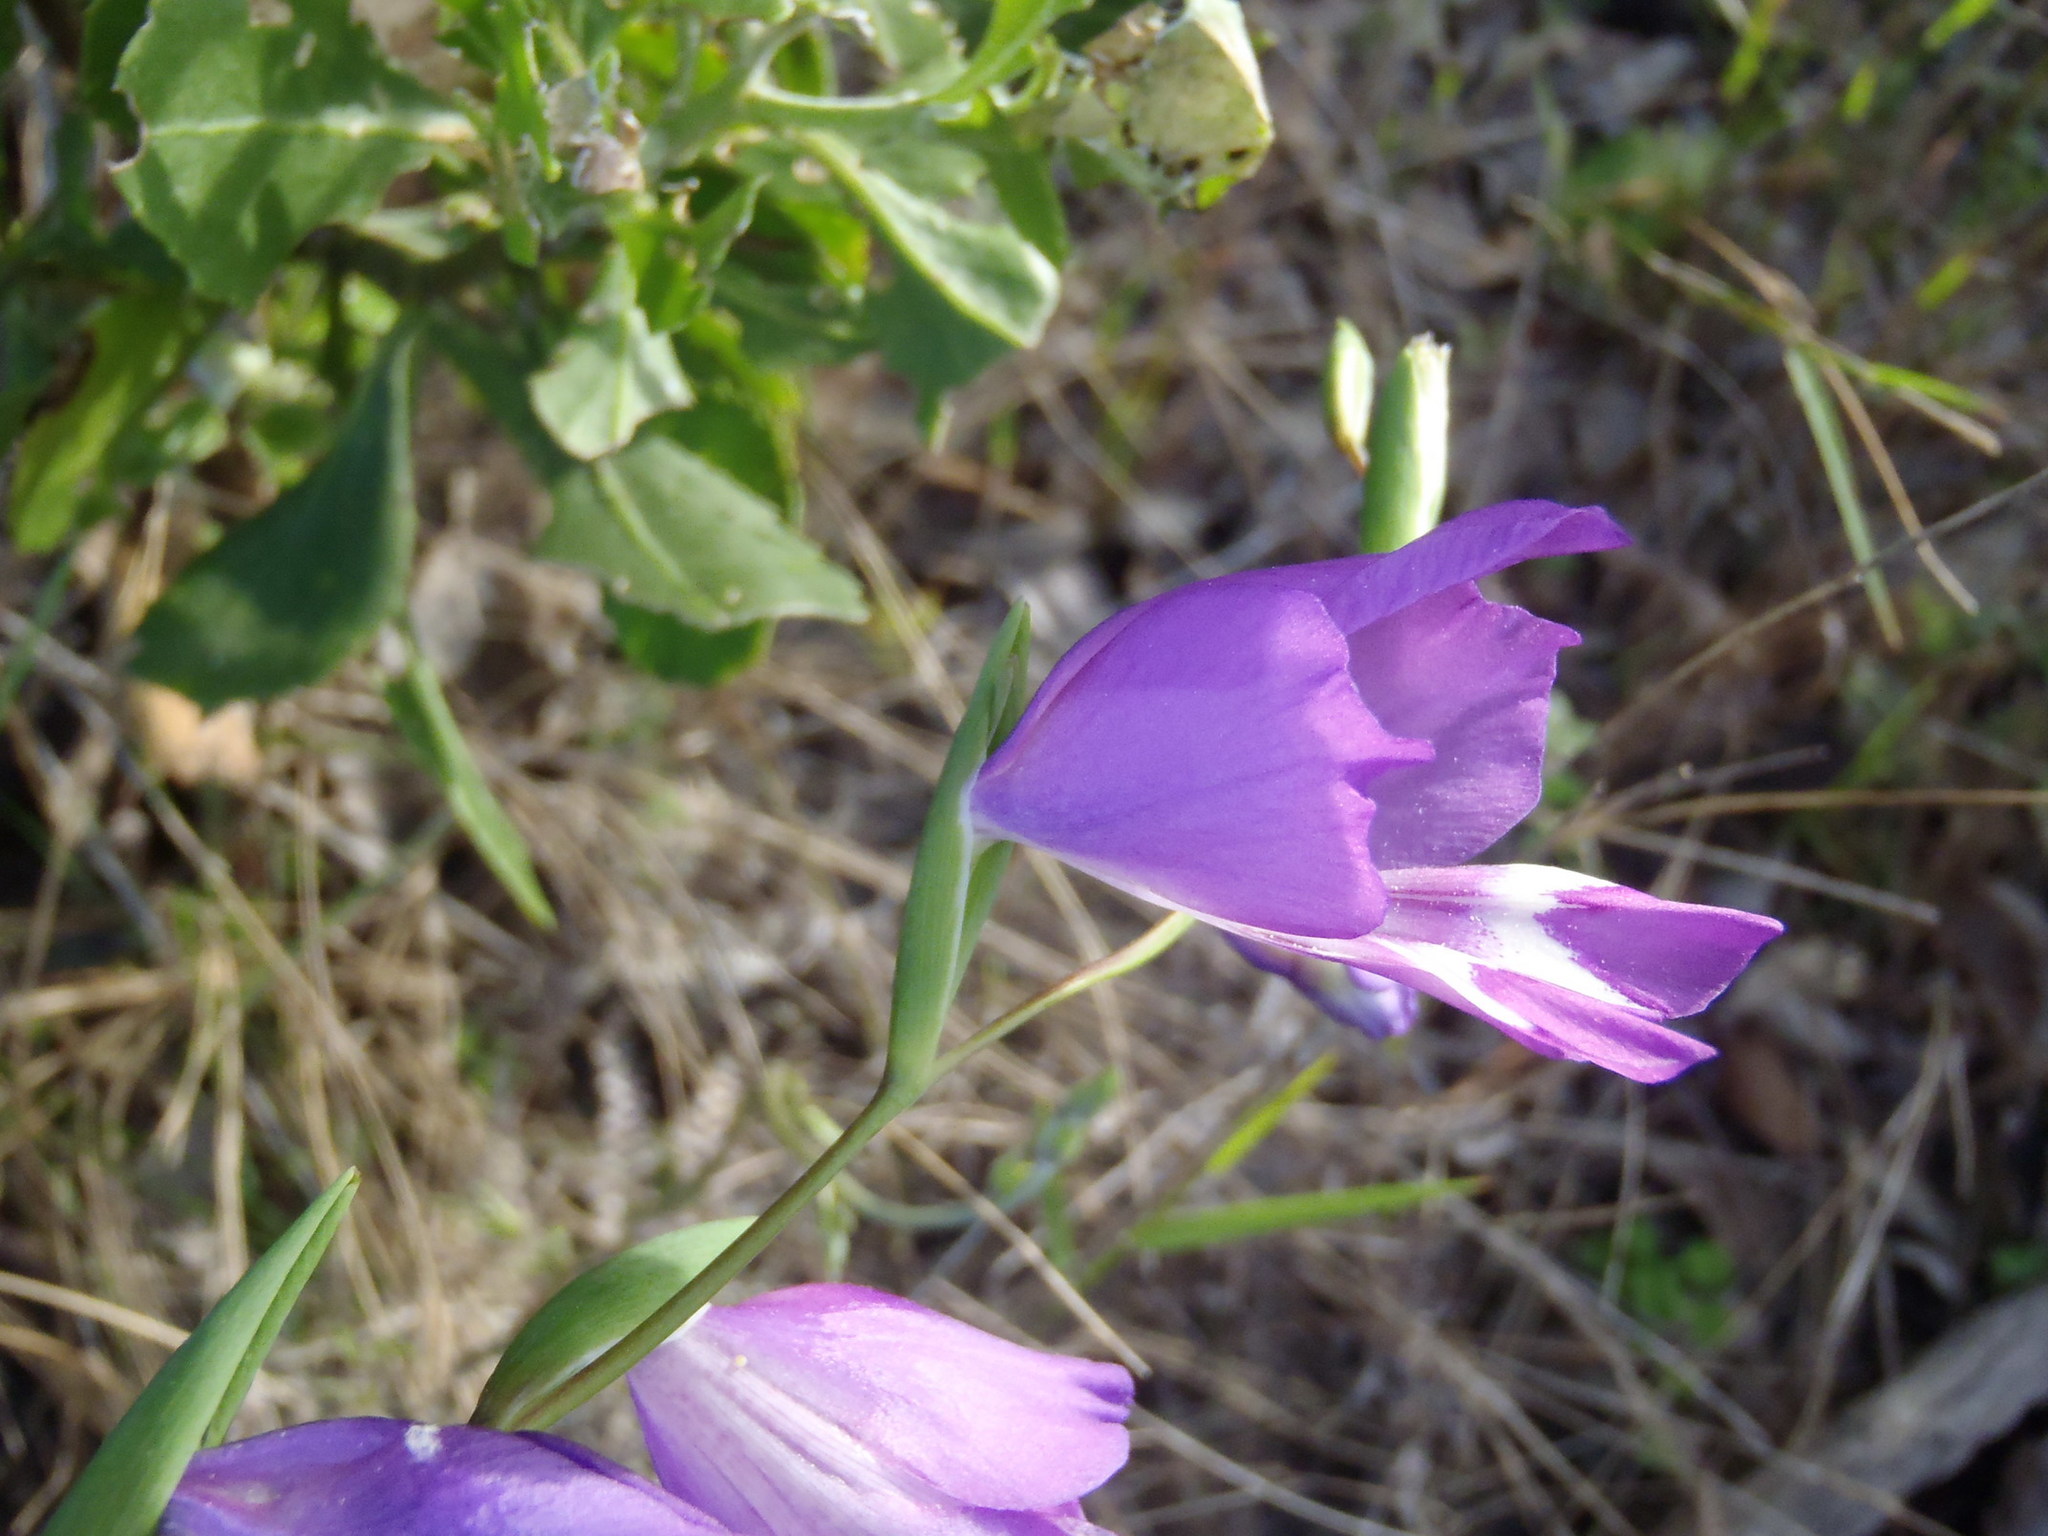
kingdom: Plantae
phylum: Tracheophyta
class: Liliopsida
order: Asparagales
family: Iridaceae
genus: Gladiolus
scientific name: Gladiolus rogersii
